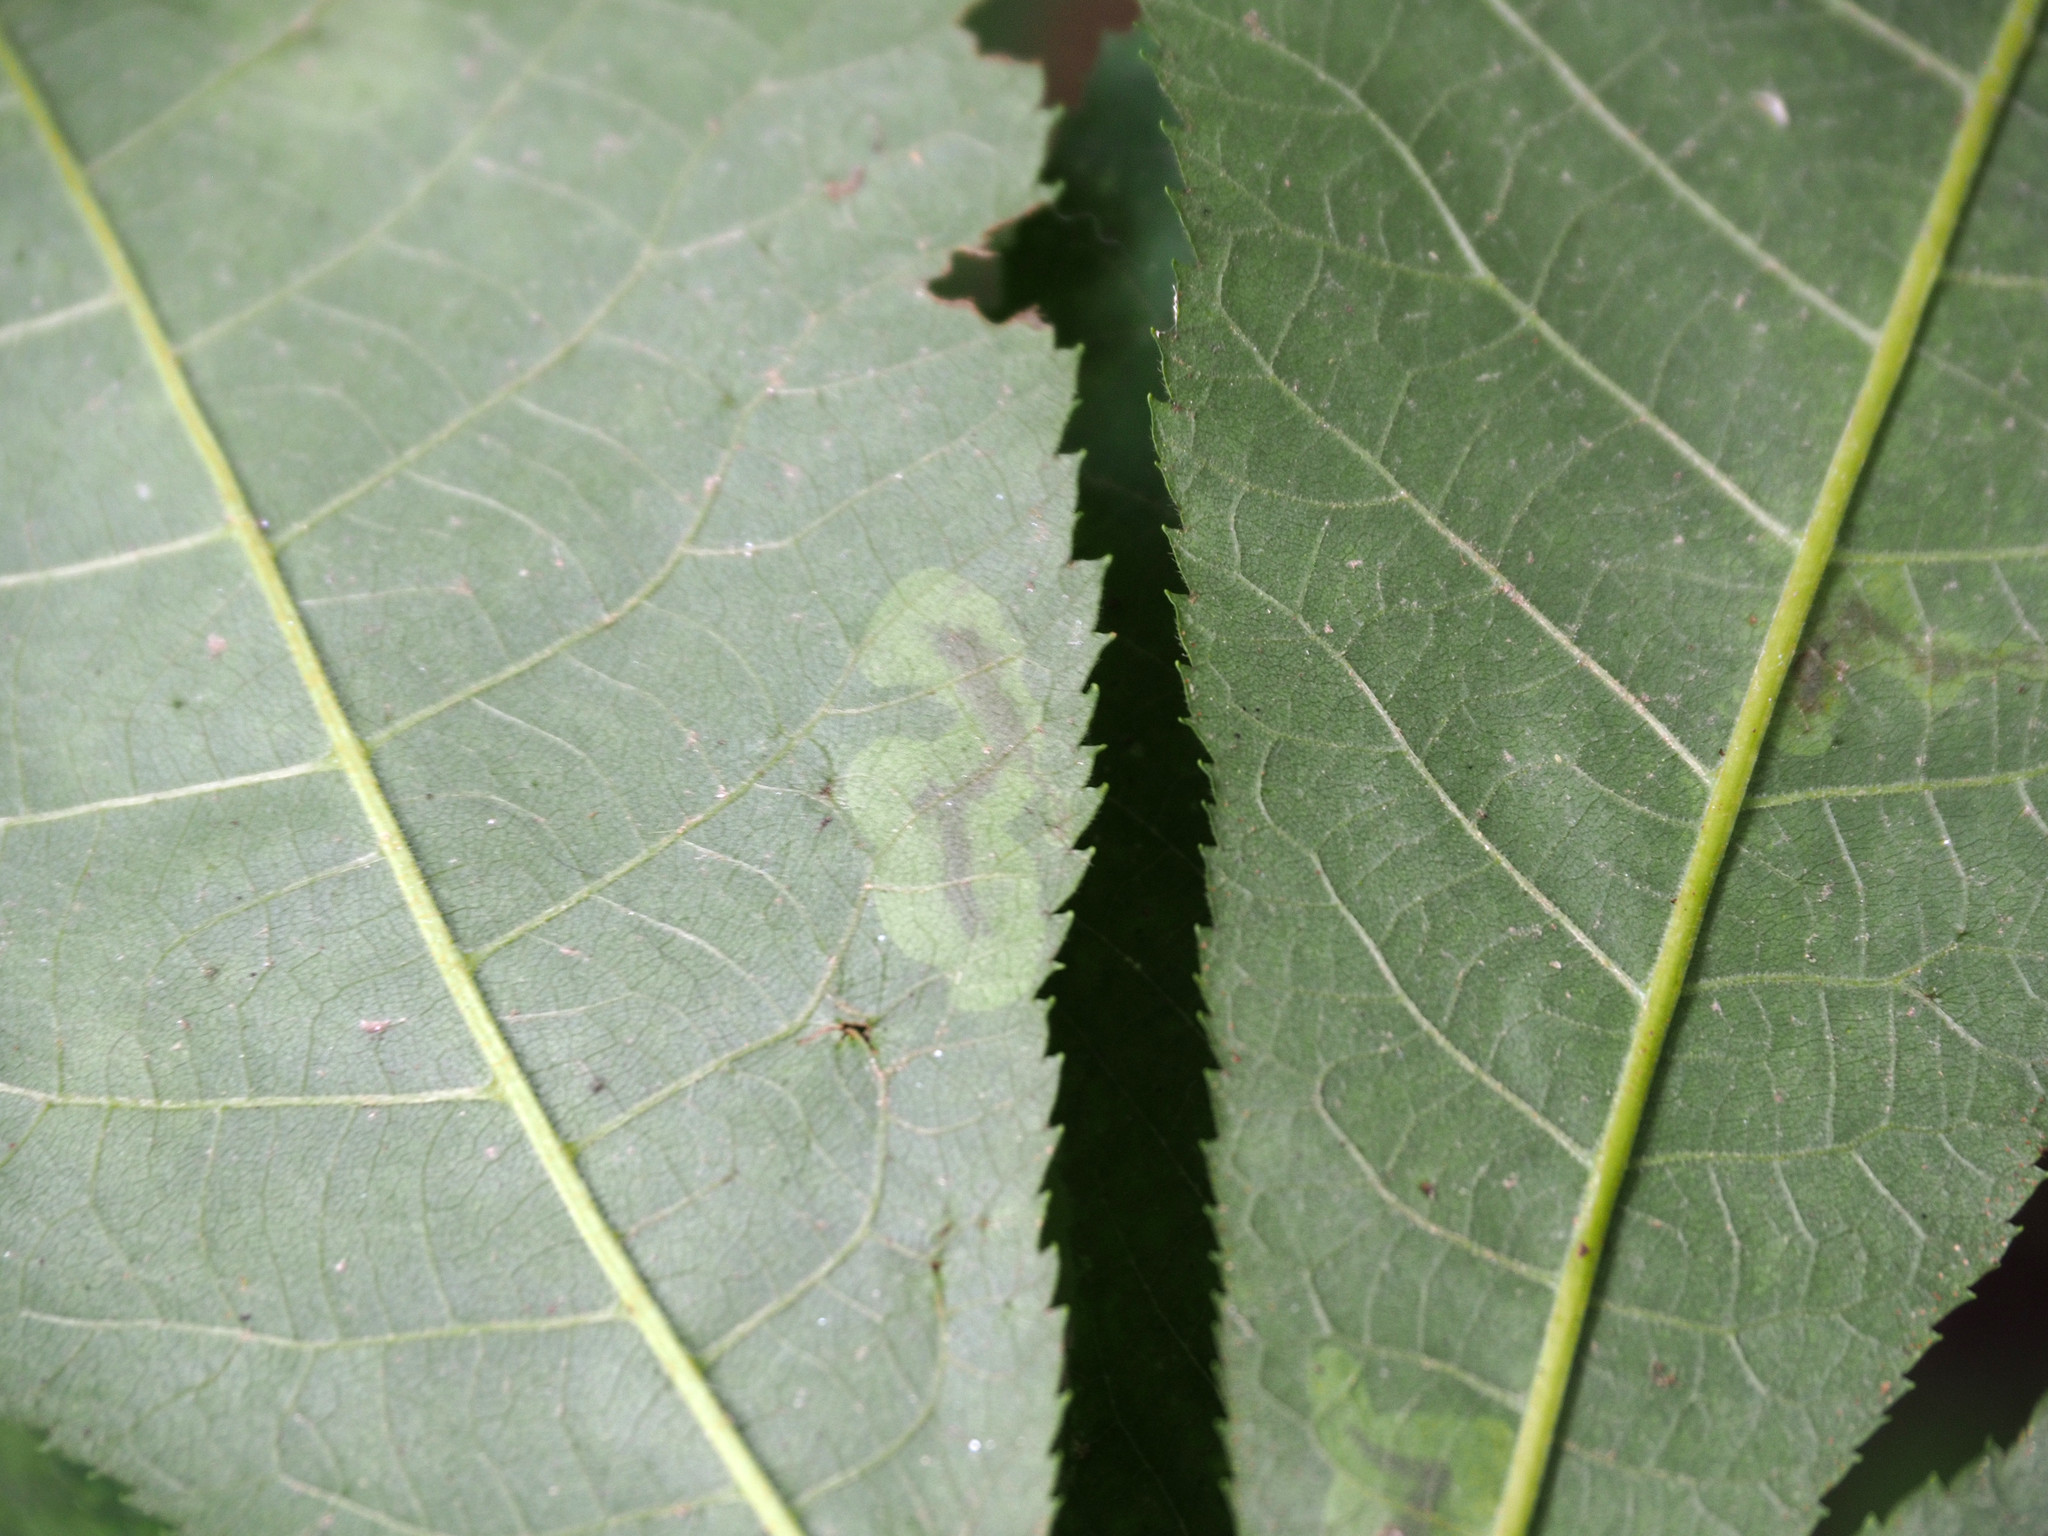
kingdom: Animalia
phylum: Arthropoda
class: Insecta
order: Lepidoptera
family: Gracillariidae
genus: Cameraria
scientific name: Cameraria caryaefoliella
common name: Pecan leafminer moth
